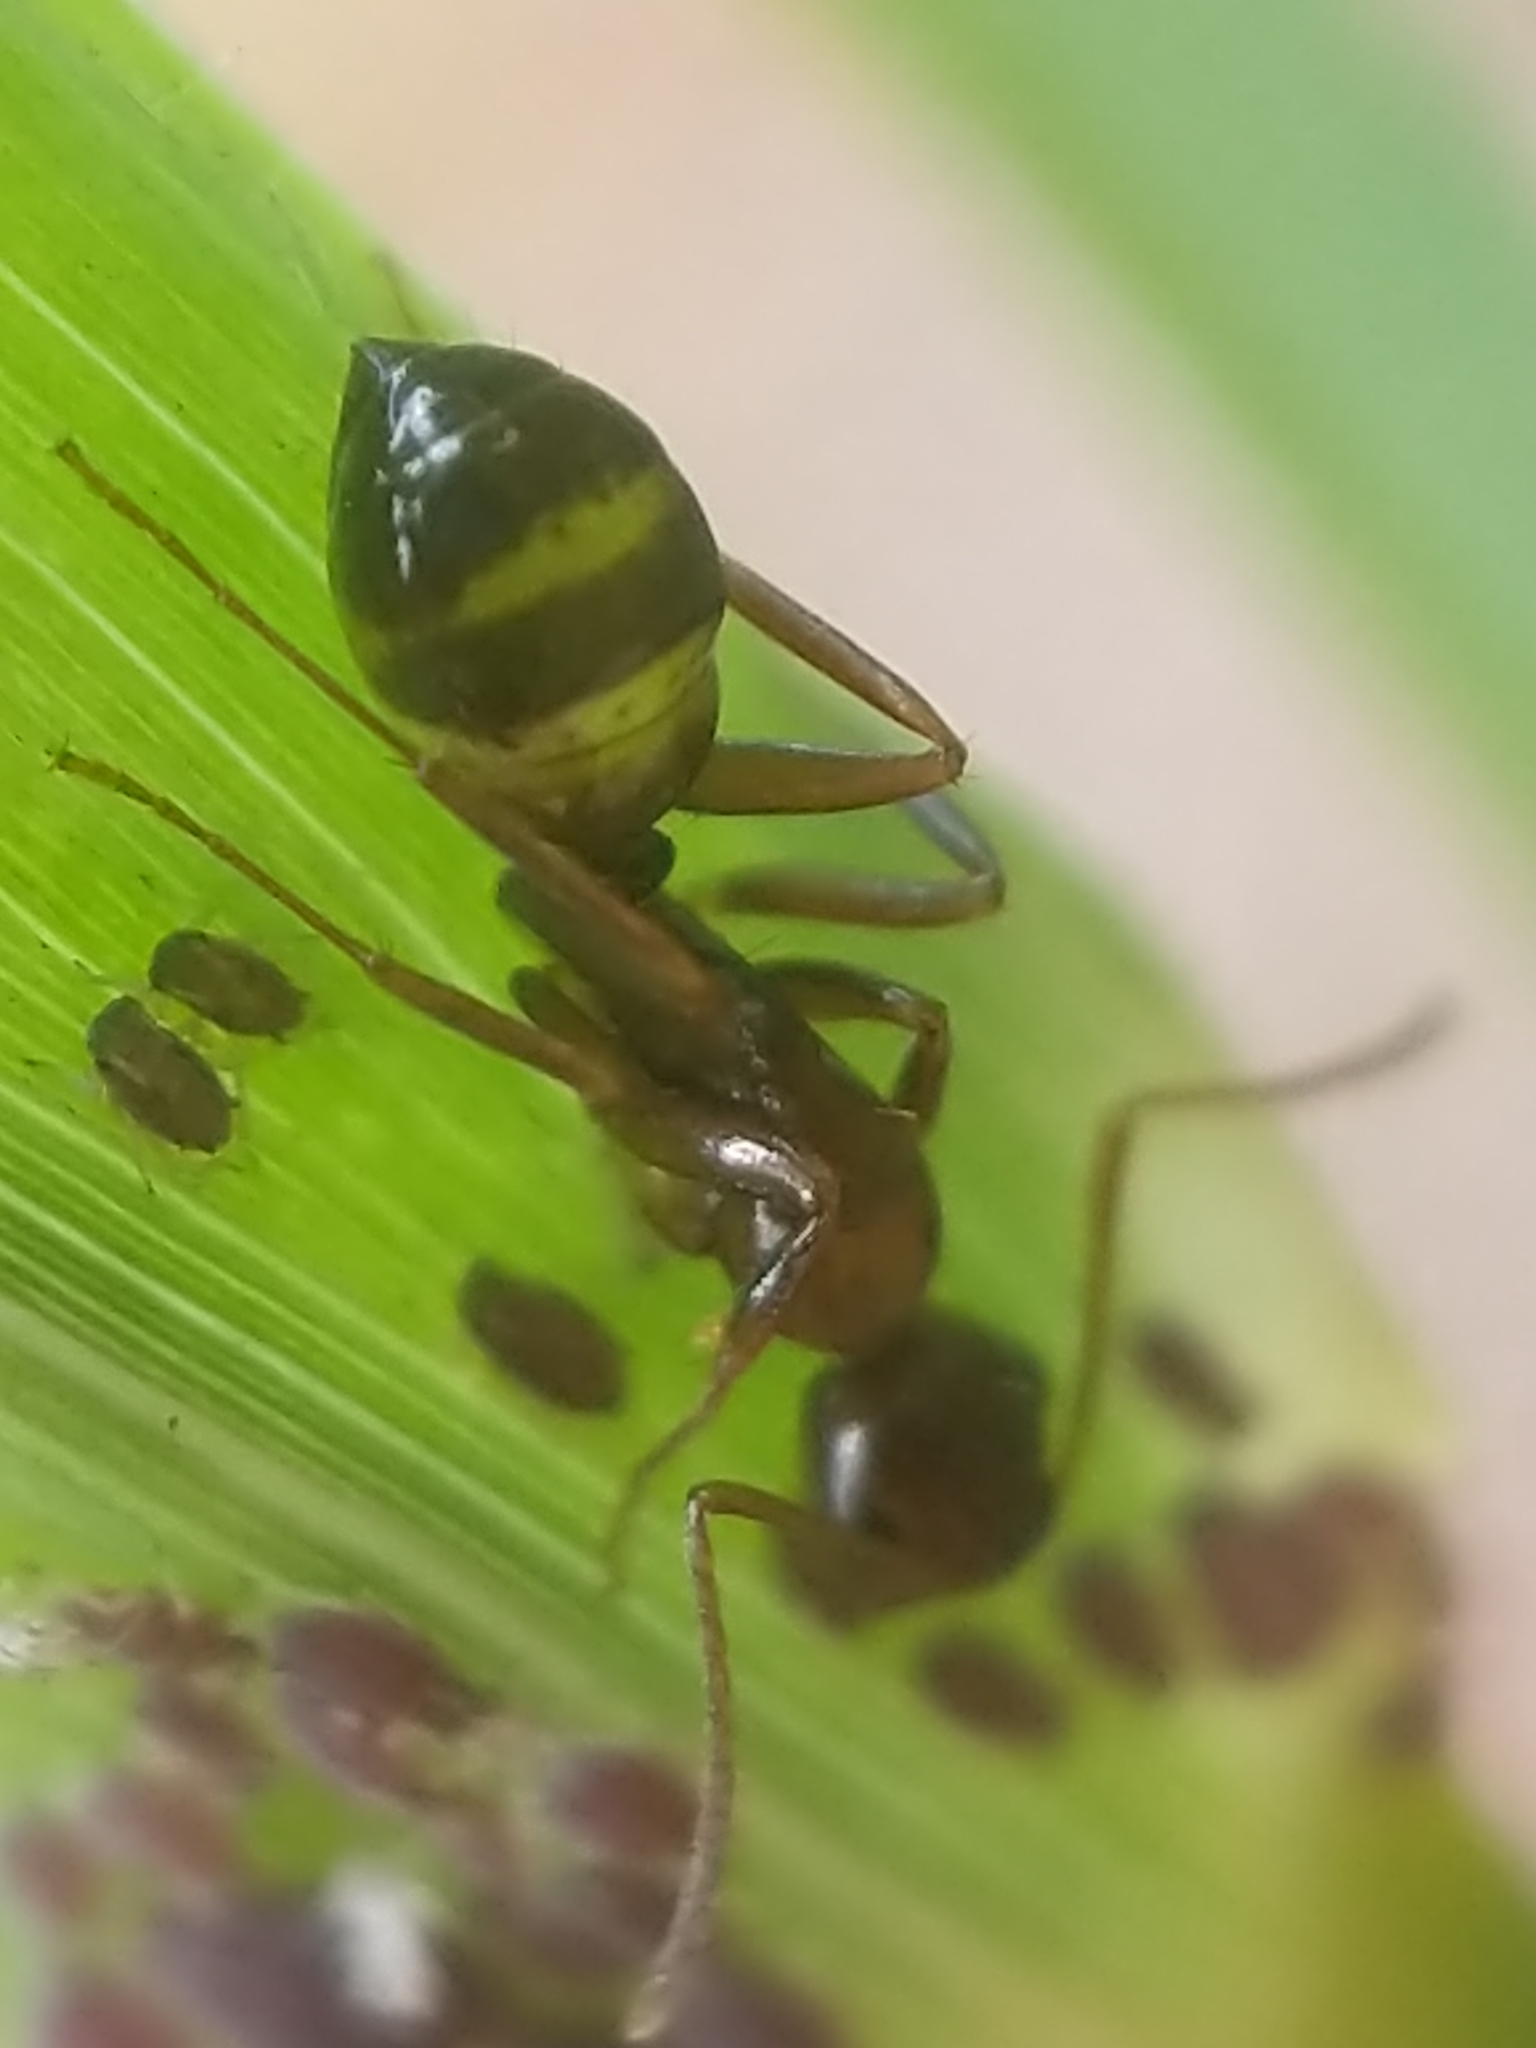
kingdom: Animalia
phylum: Arthropoda
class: Insecta
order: Hymenoptera
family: Formicidae
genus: Camponotus
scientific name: Camponotus subbarbatus
